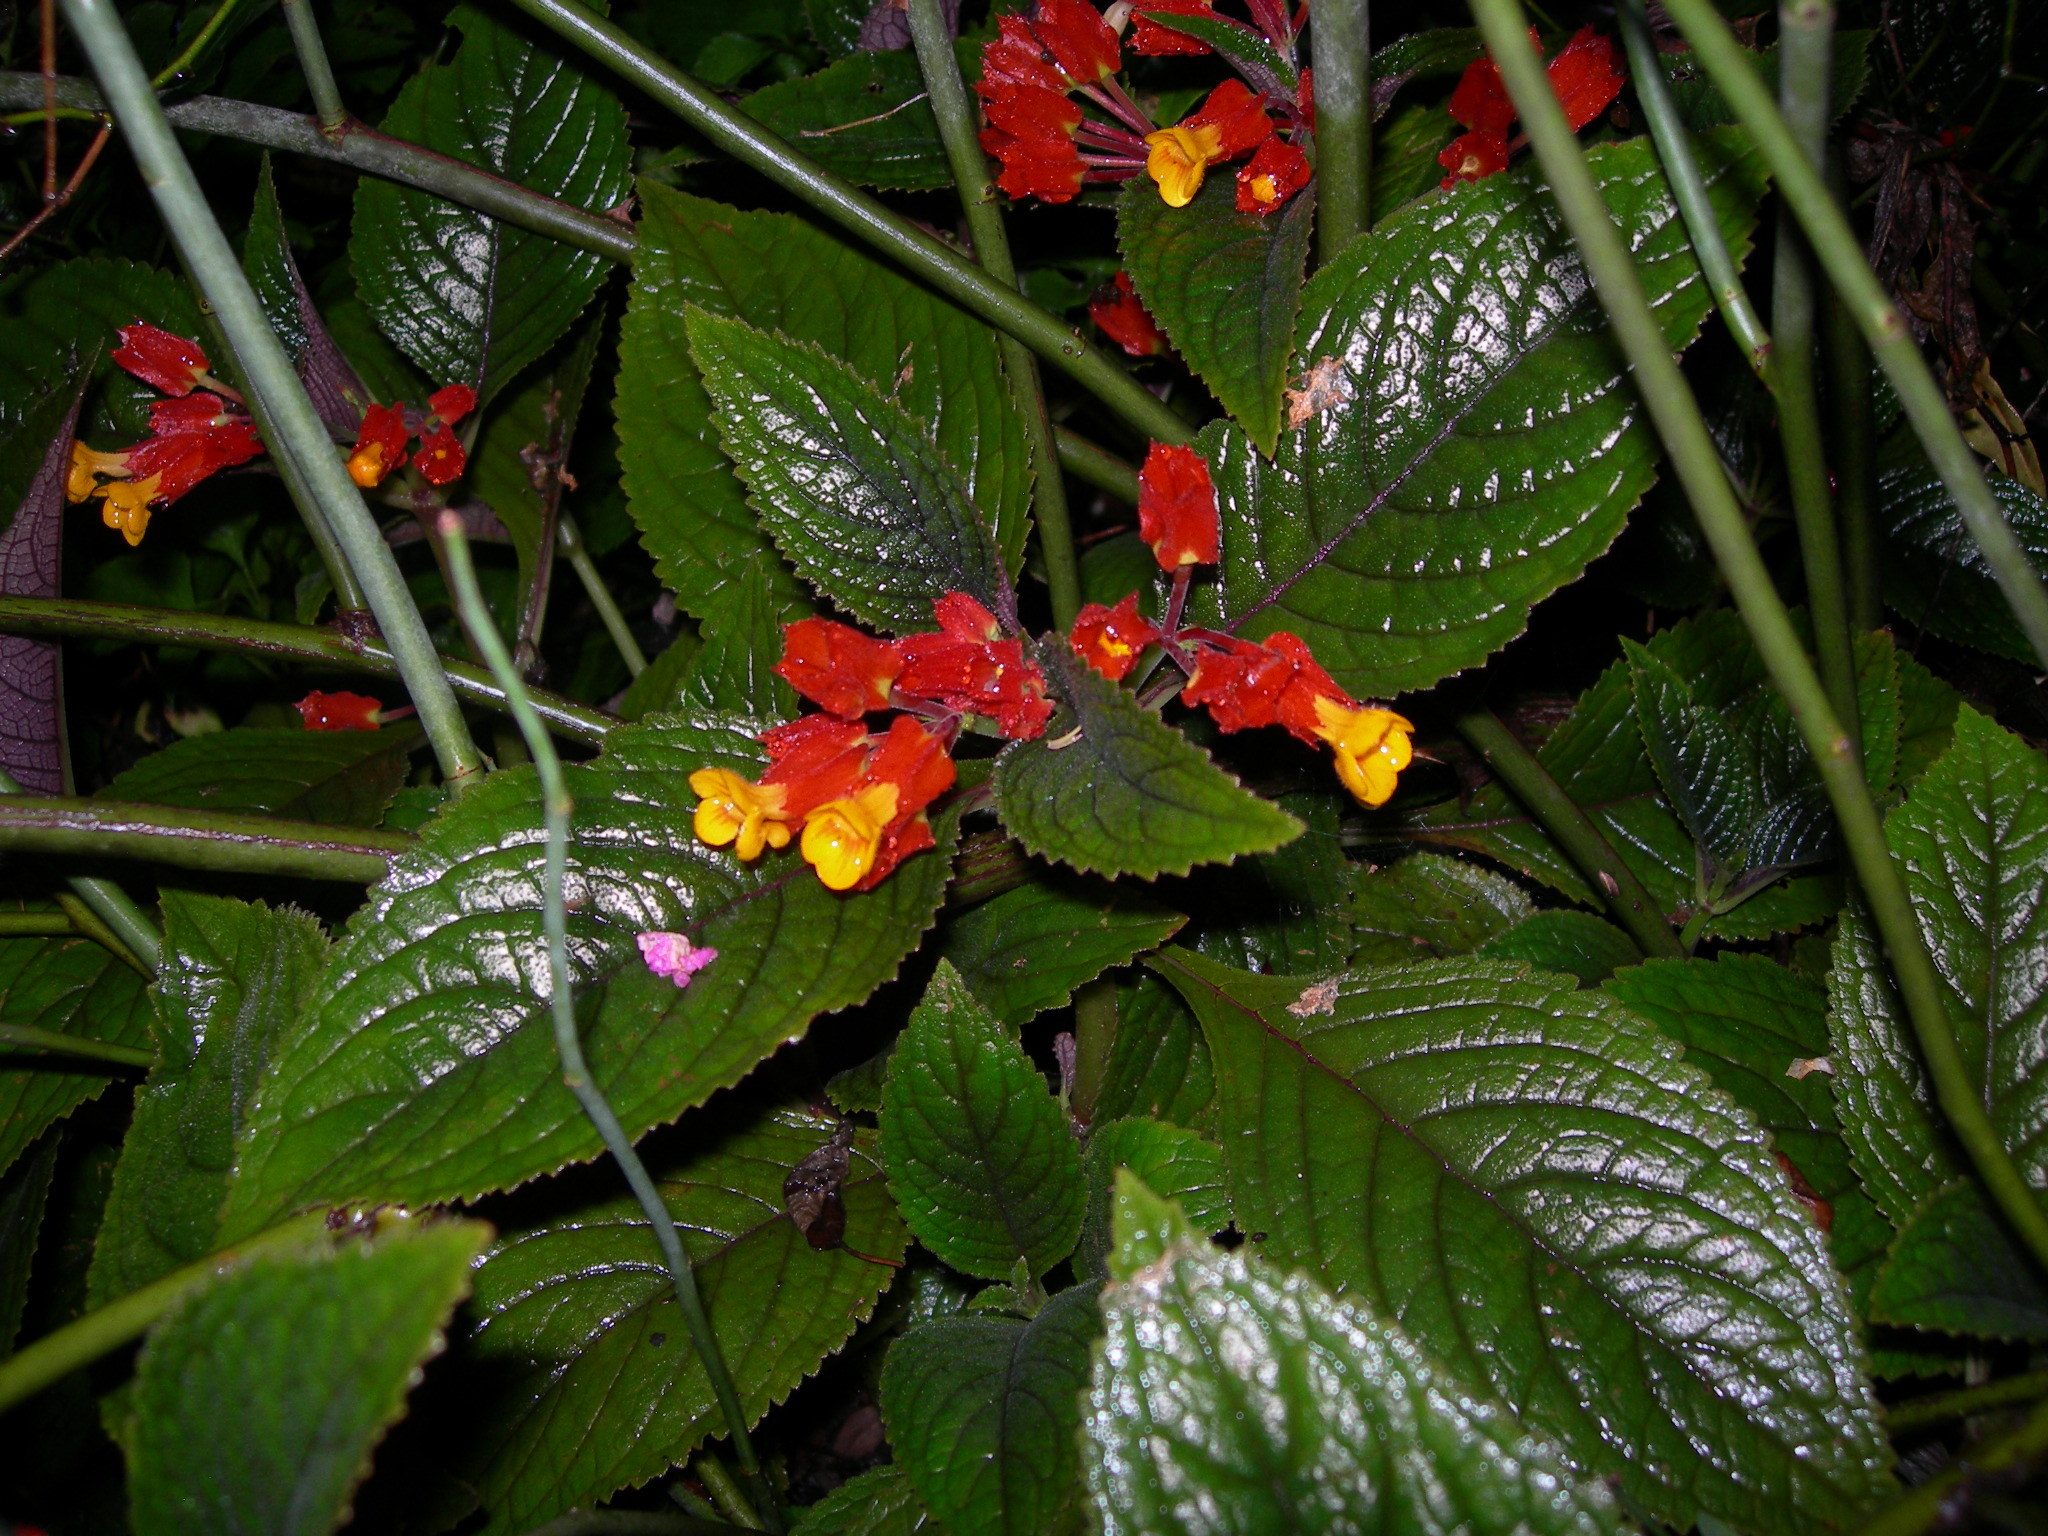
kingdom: Plantae
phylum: Tracheophyta
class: Magnoliopsida
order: Lamiales
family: Gesneriaceae
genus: Chrysothemis
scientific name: Chrysothemis pulchella
